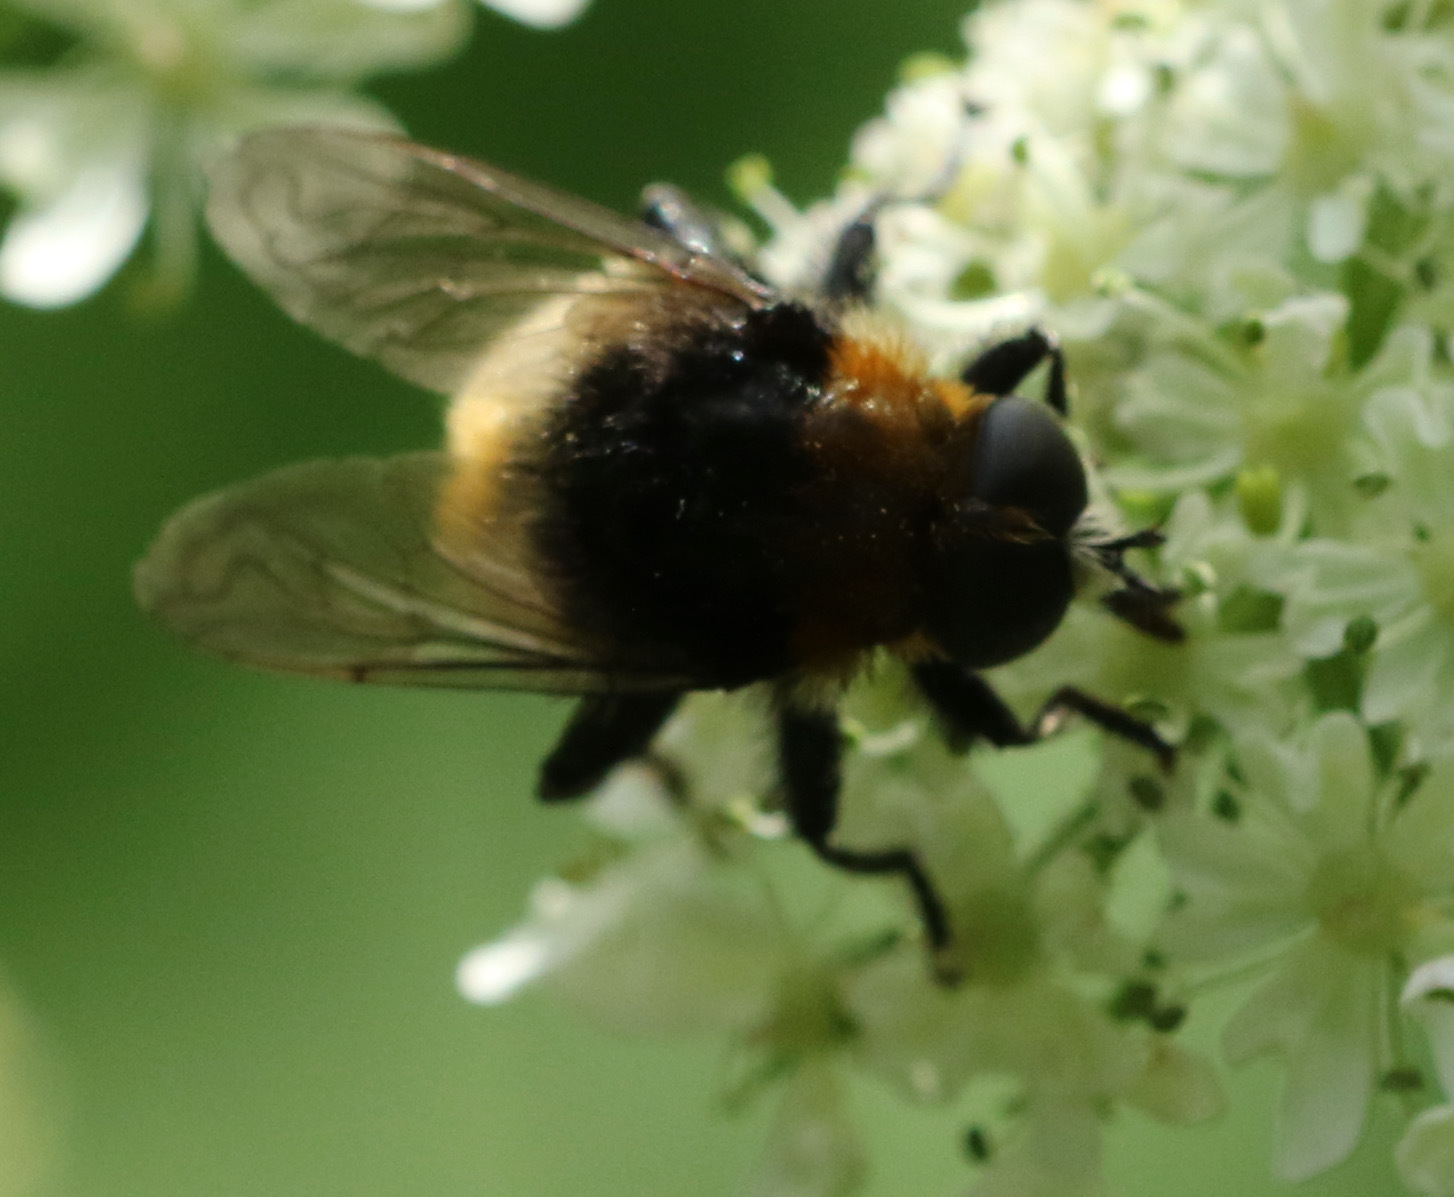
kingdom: Animalia
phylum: Arthropoda
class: Insecta
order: Diptera
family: Syrphidae
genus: Merodon
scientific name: Merodon equestris
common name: Greater bulb-fly
